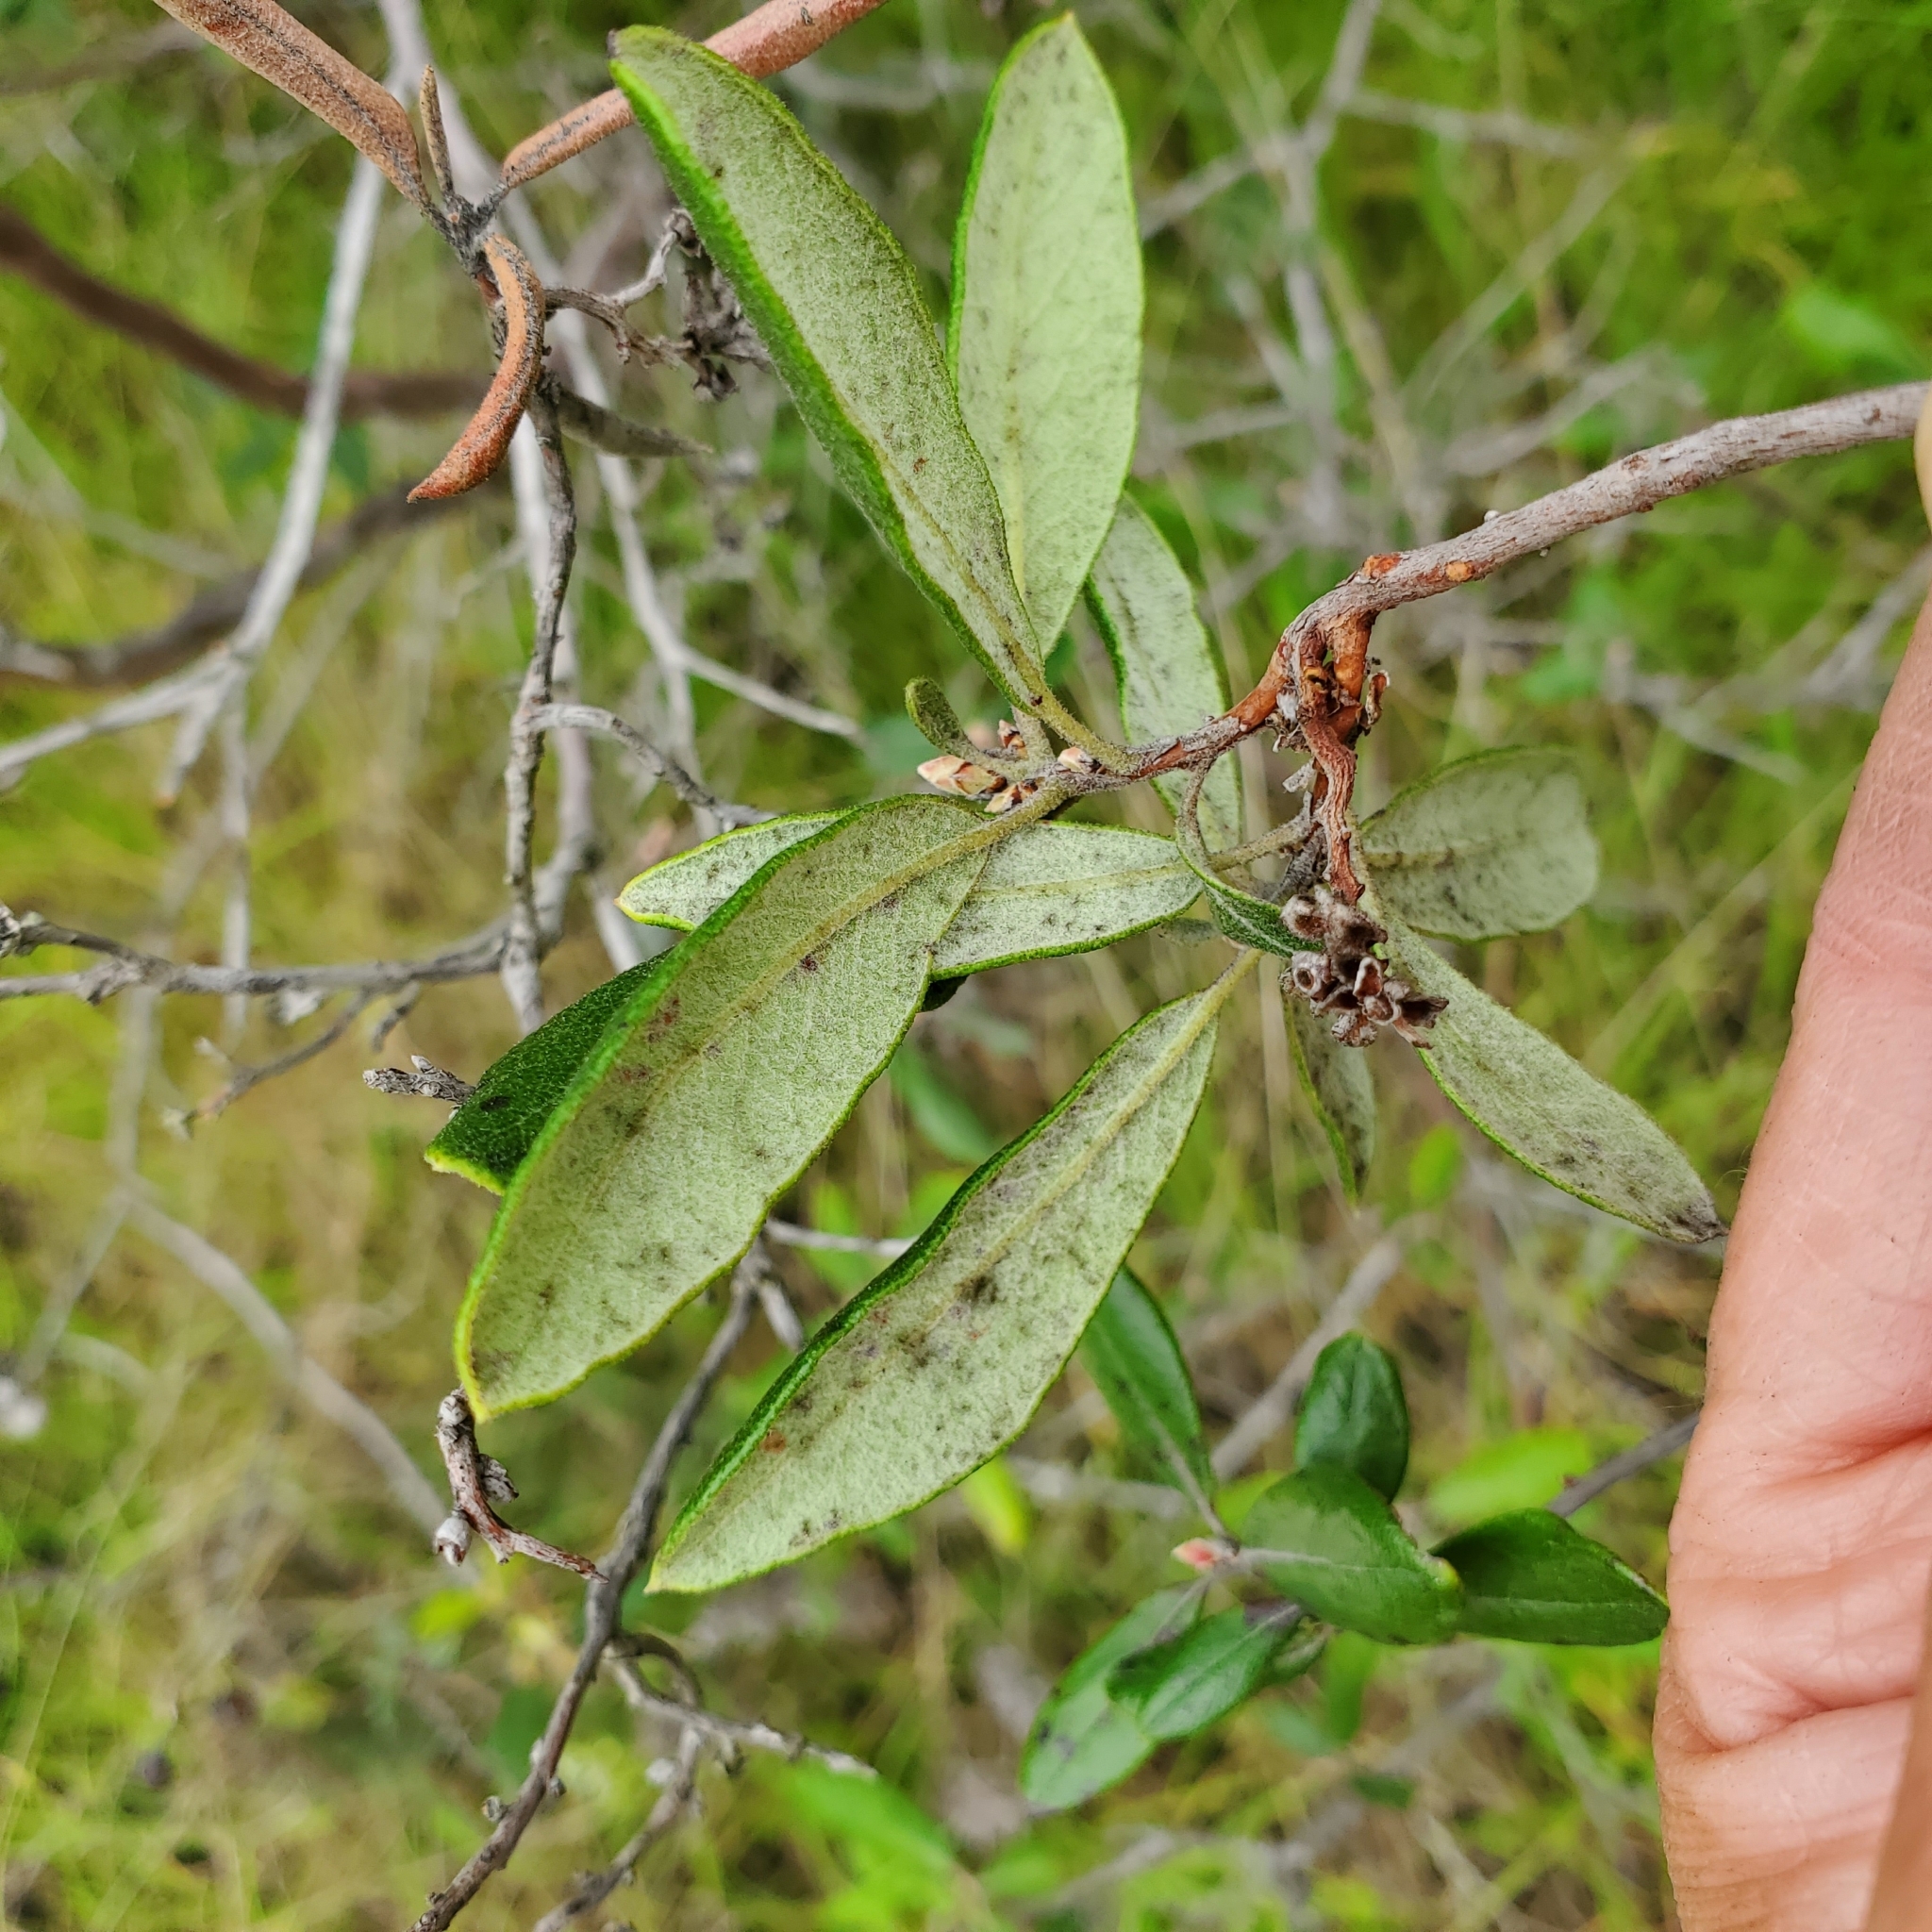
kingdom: Plantae
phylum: Tracheophyta
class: Magnoliopsida
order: Ericales
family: Ericaceae
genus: Arctostaphylos
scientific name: Arctostaphylos bicolor
